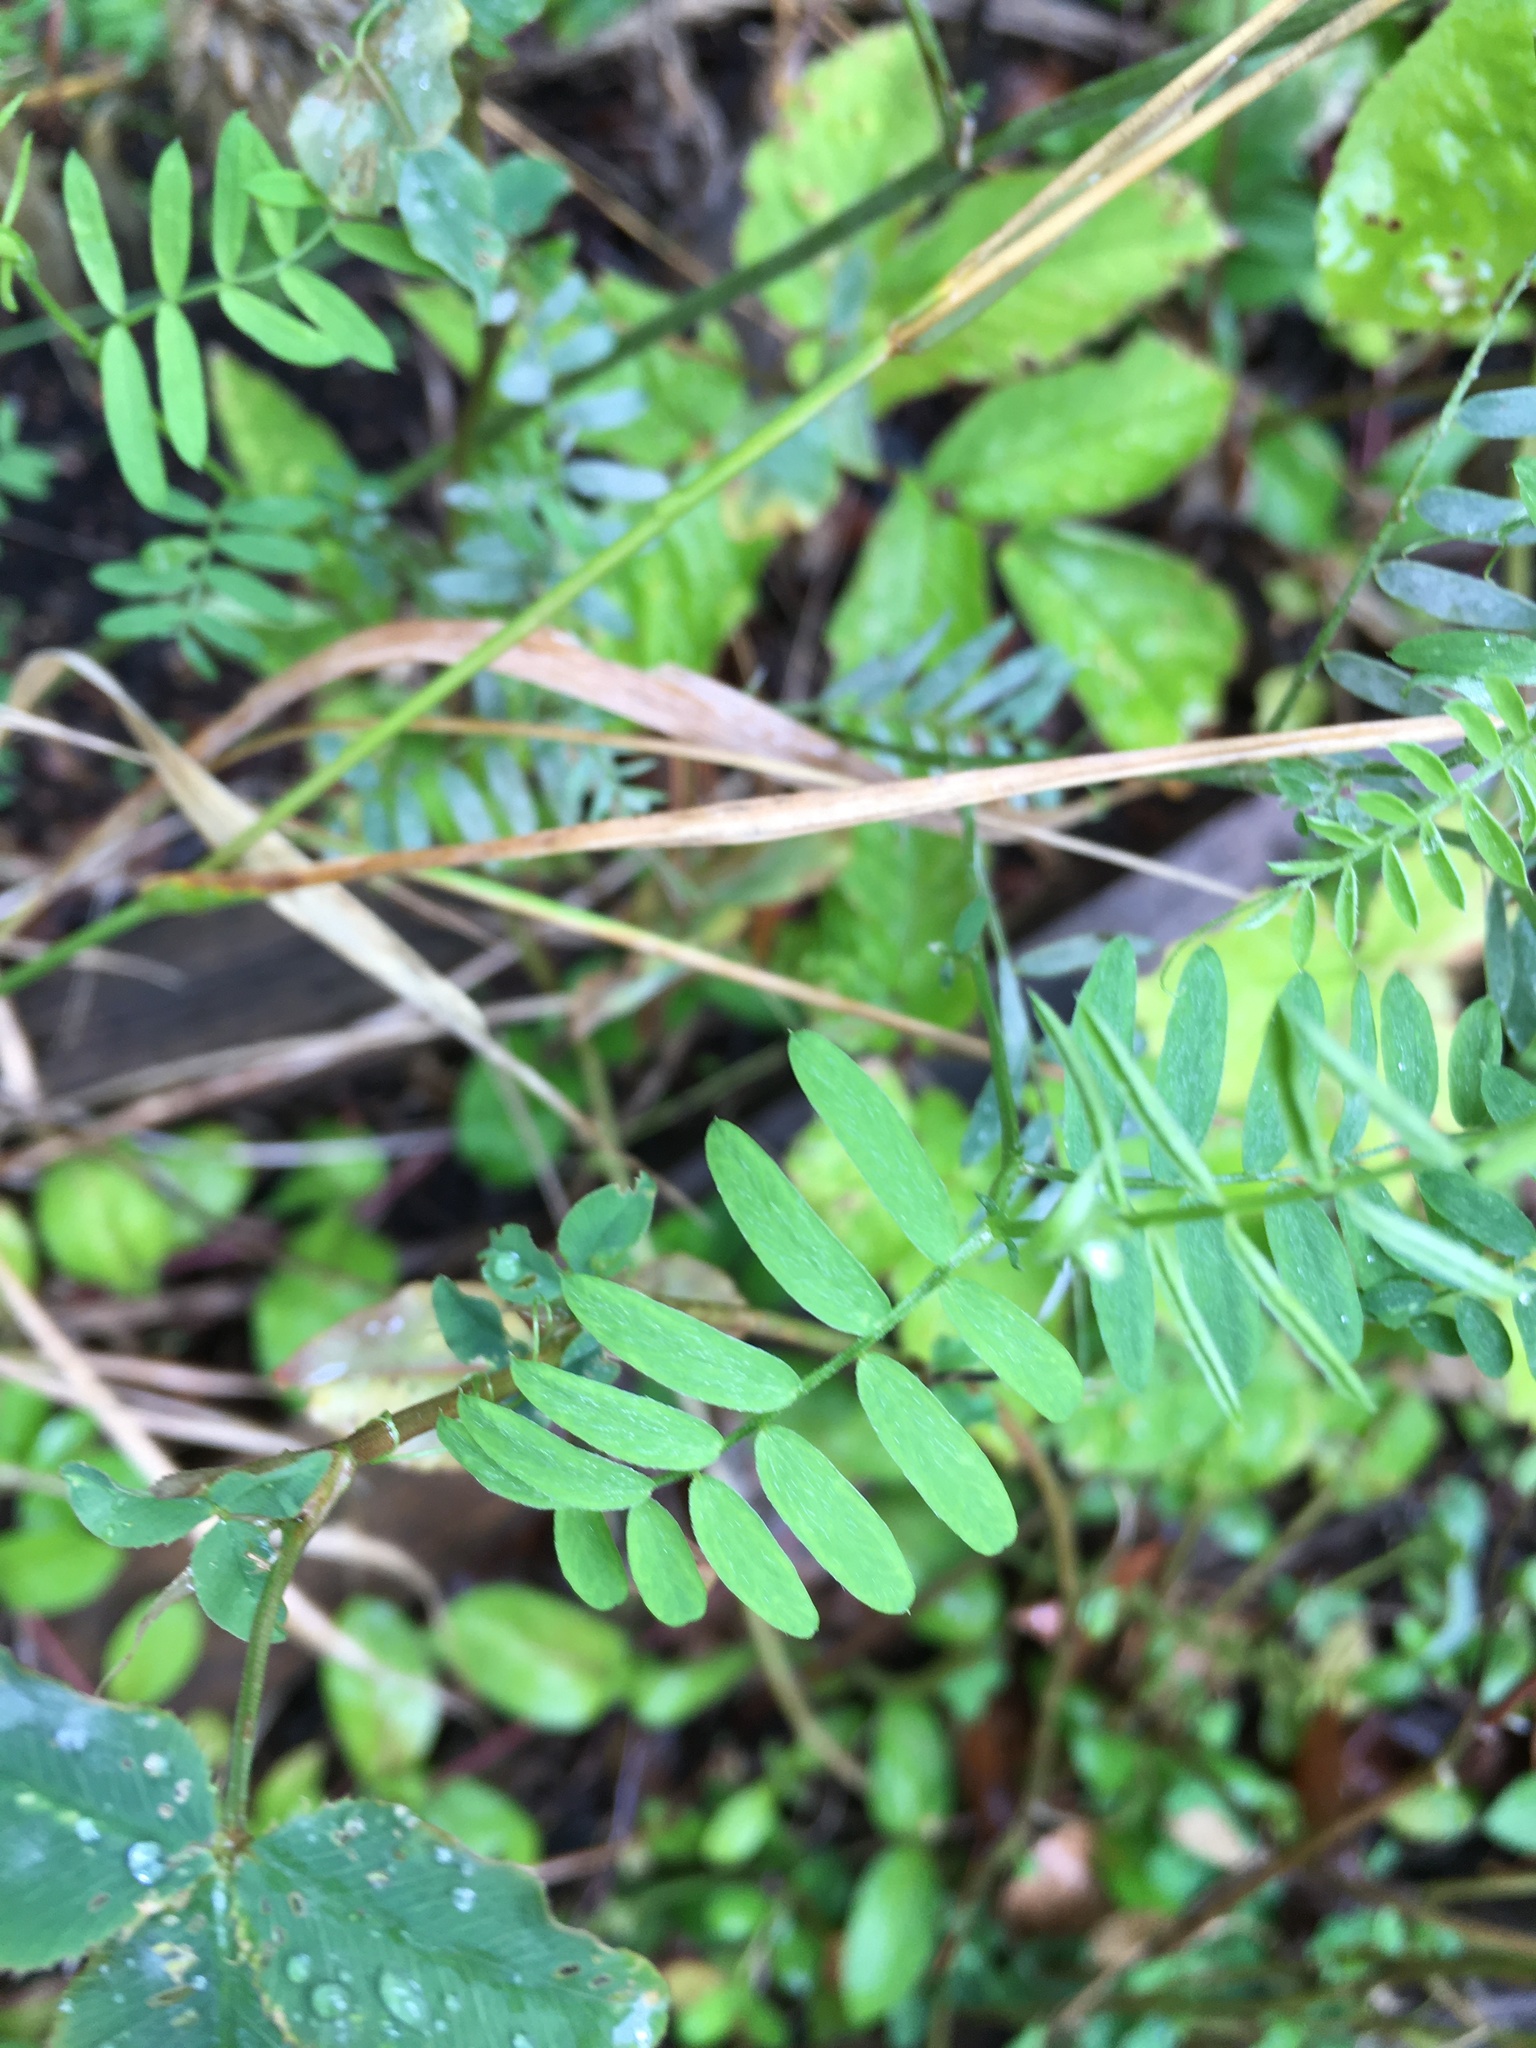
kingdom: Plantae
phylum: Tracheophyta
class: Magnoliopsida
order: Fabales
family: Fabaceae
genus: Vicia
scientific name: Vicia cracca
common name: Bird vetch
